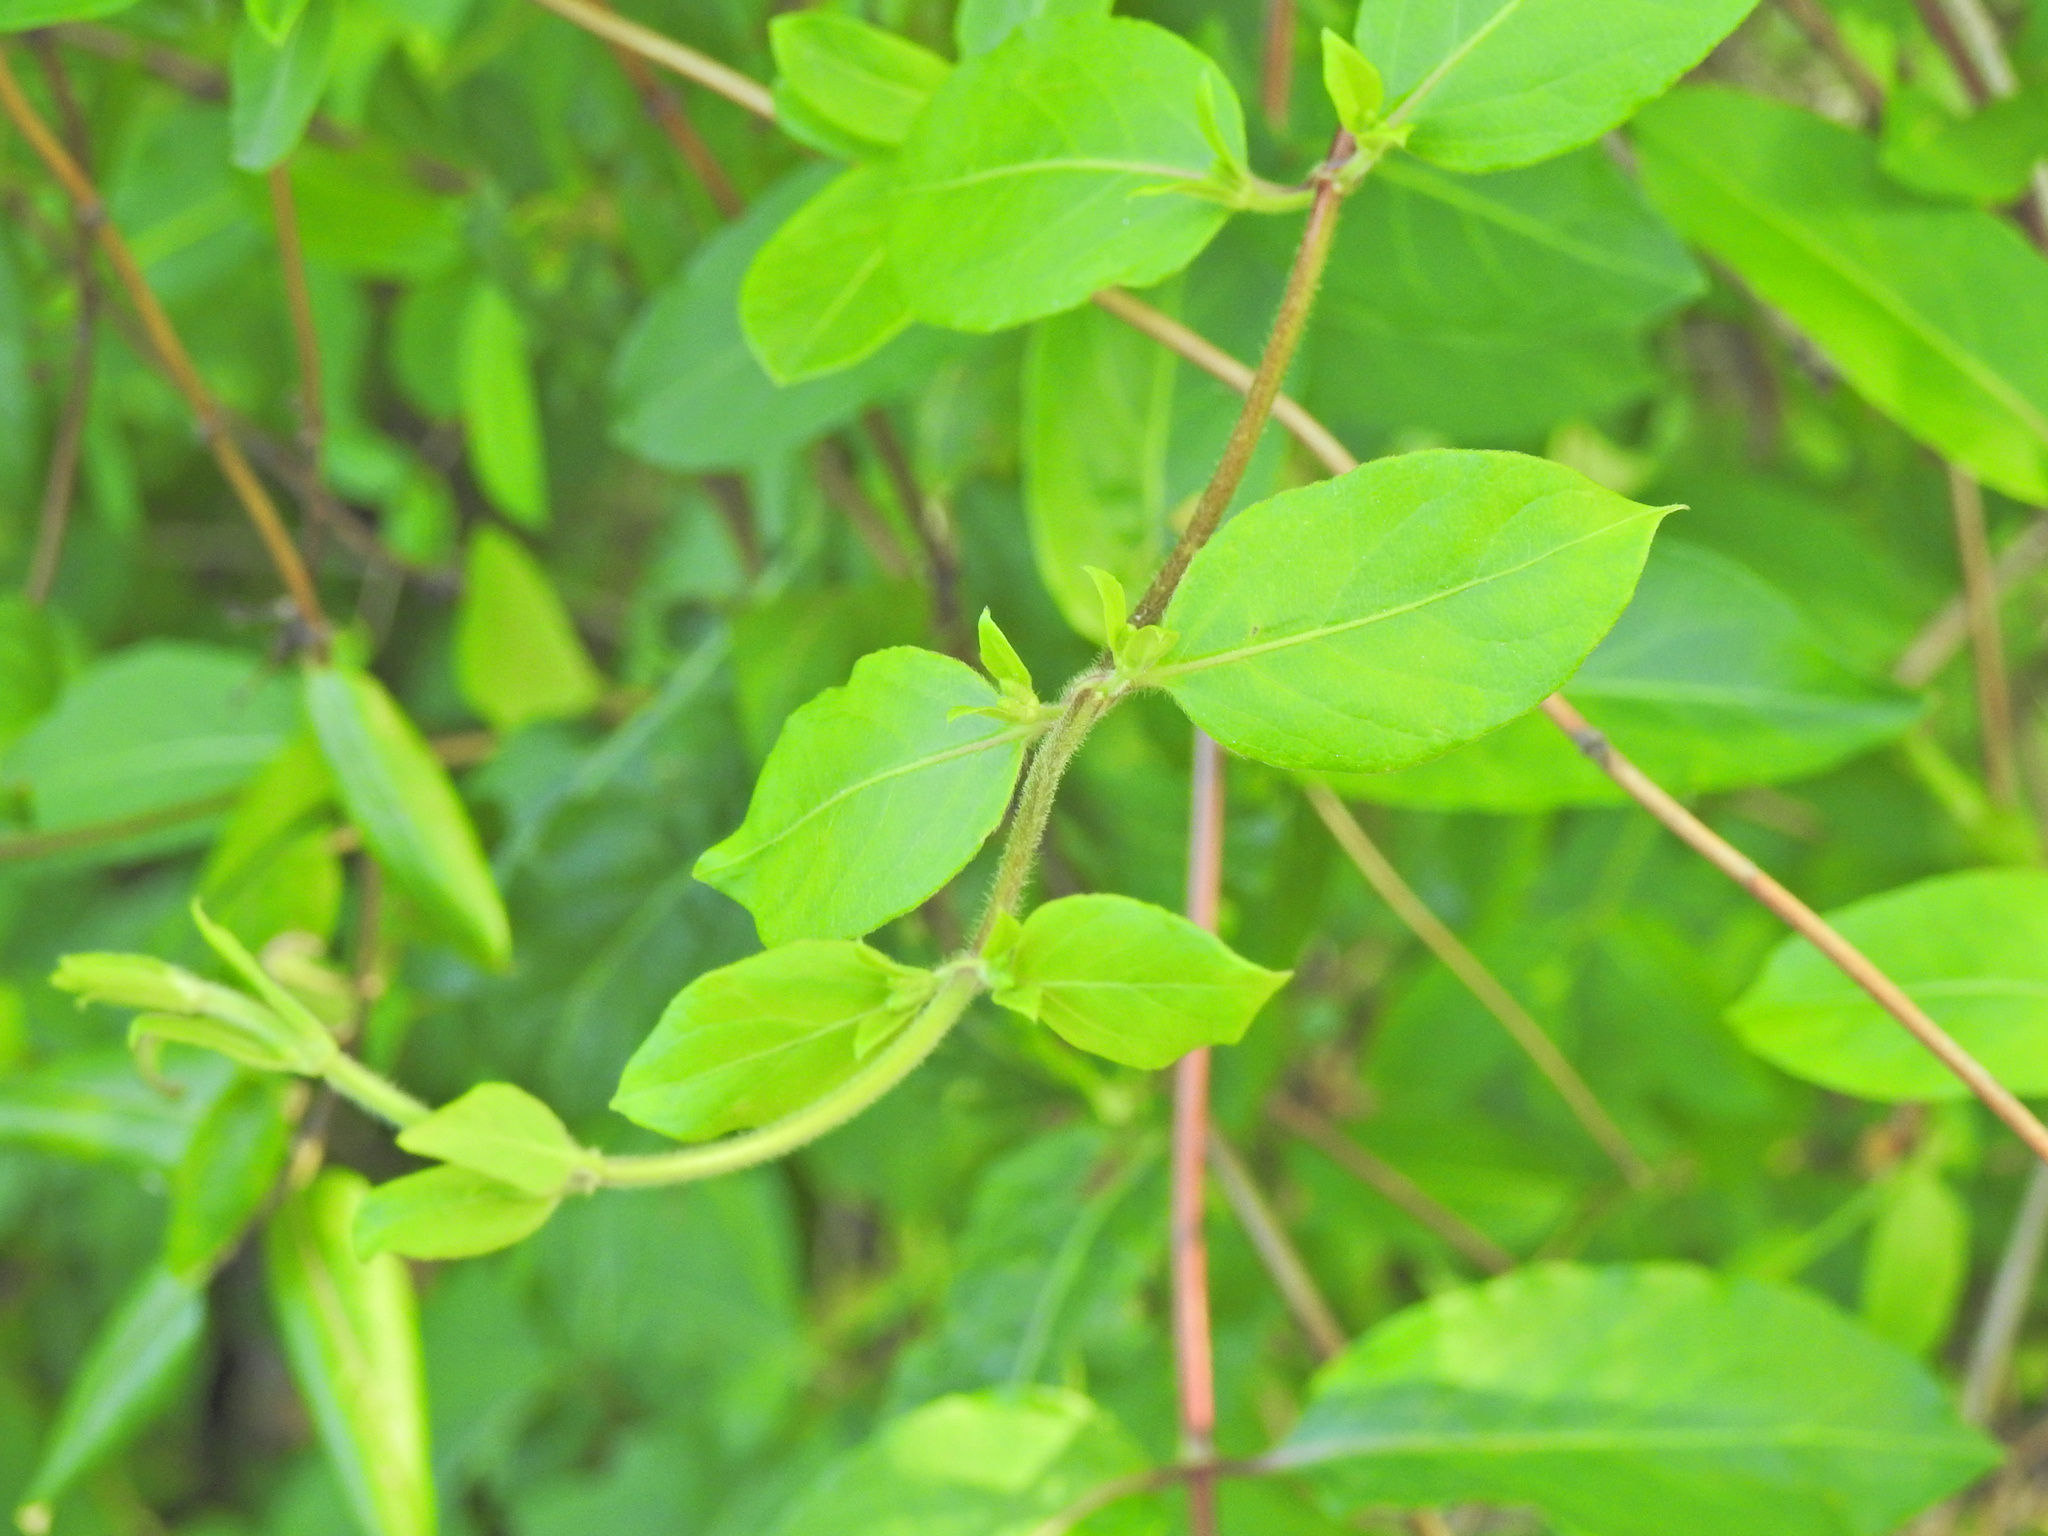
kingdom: Plantae
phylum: Tracheophyta
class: Magnoliopsida
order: Dipsacales
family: Caprifoliaceae
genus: Lonicera
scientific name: Lonicera japonica
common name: Japanese honeysuckle
